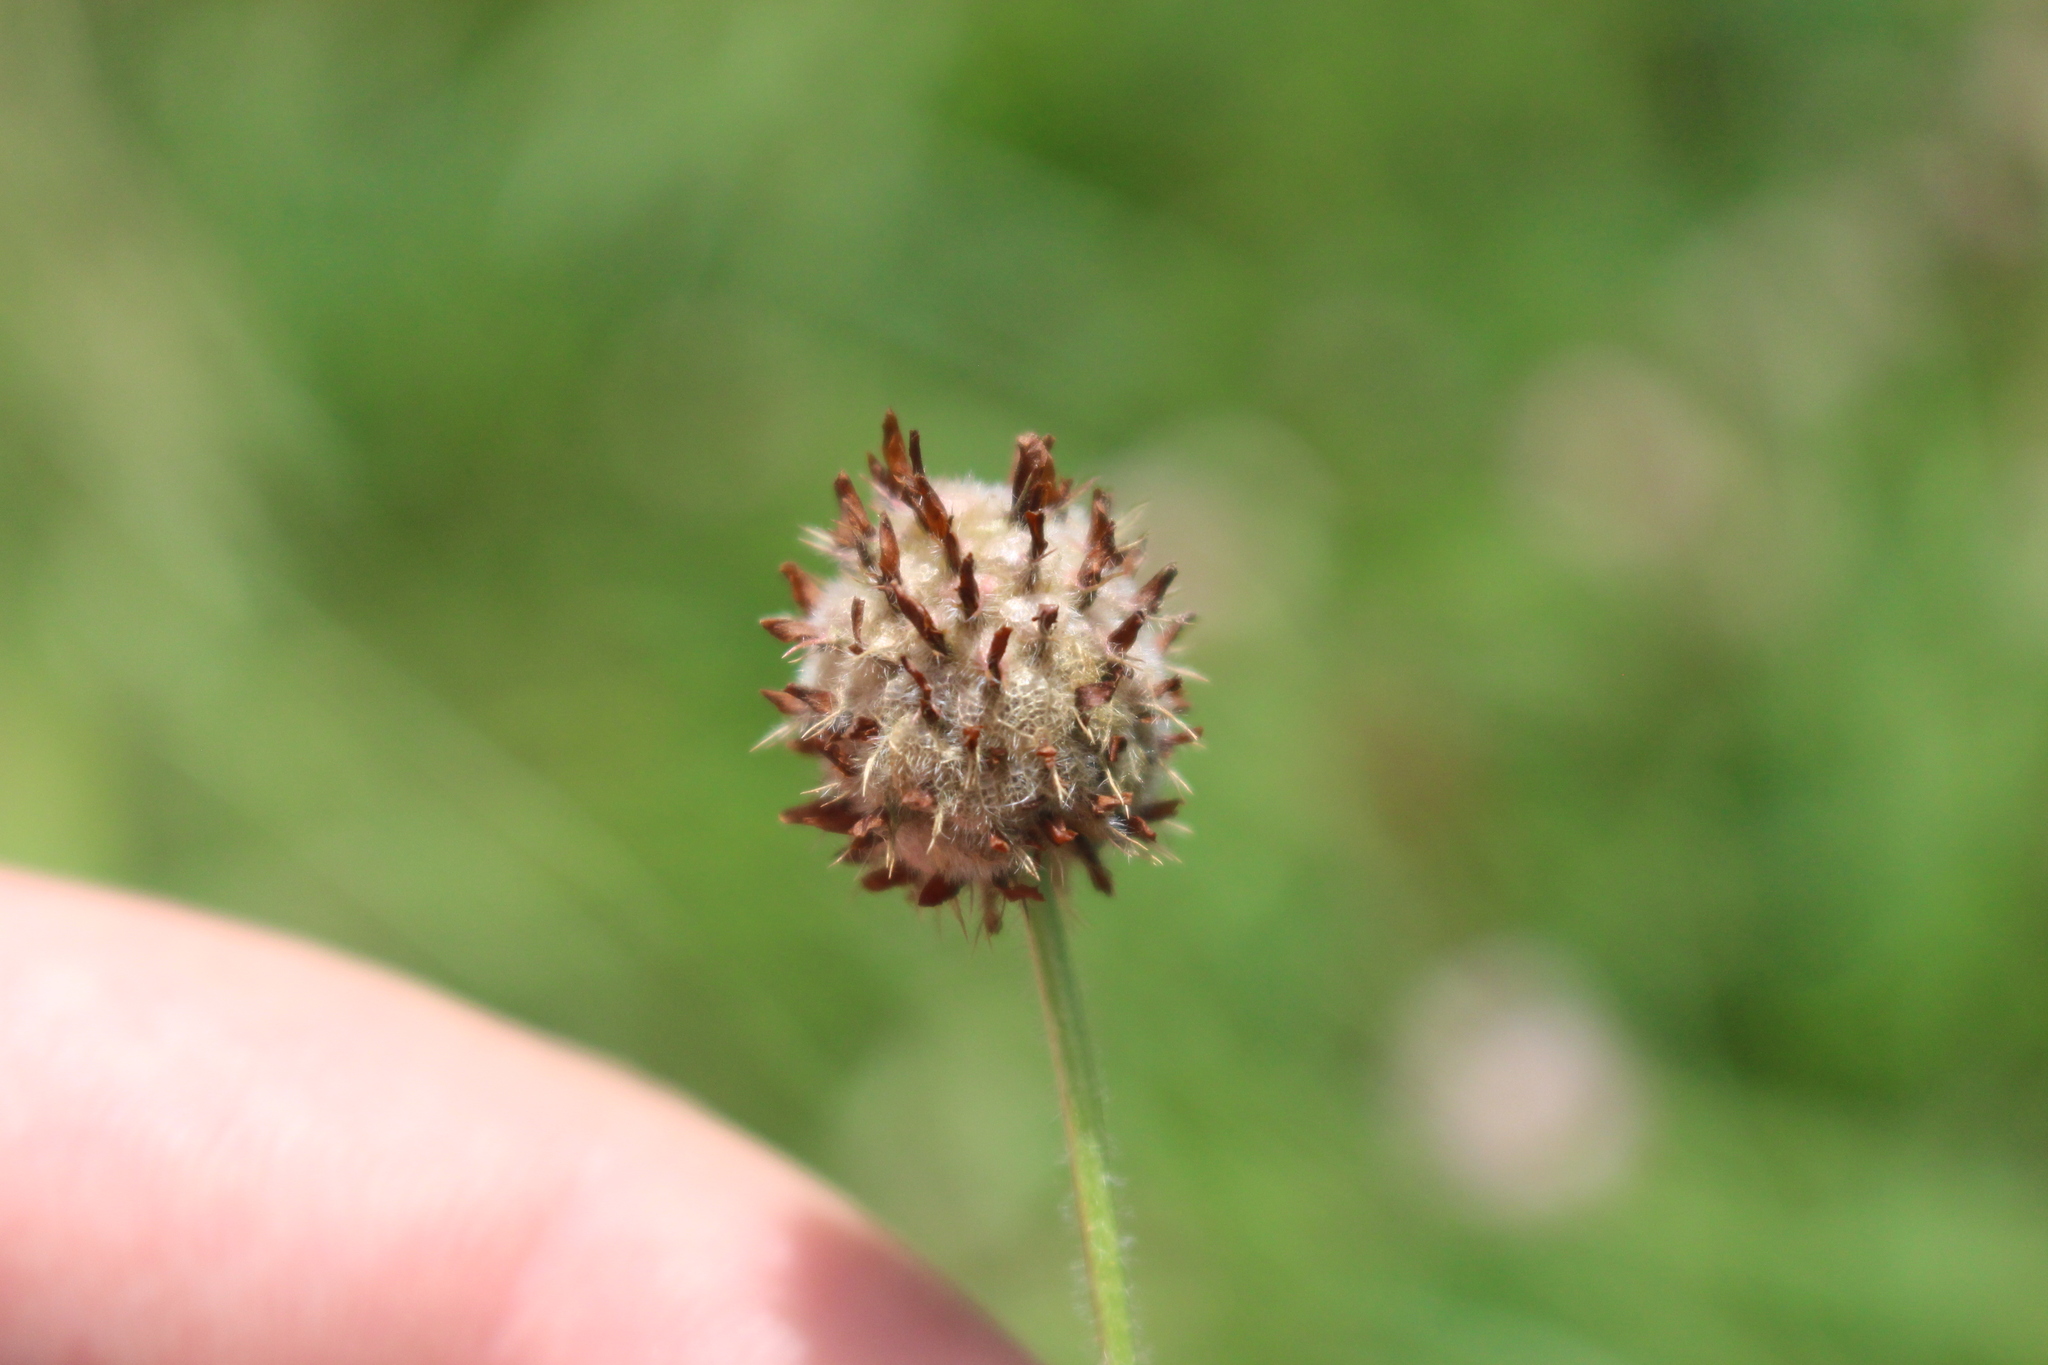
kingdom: Plantae
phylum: Tracheophyta
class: Magnoliopsida
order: Fabales
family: Fabaceae
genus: Trifolium
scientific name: Trifolium fragiferum
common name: Strawberry clover
